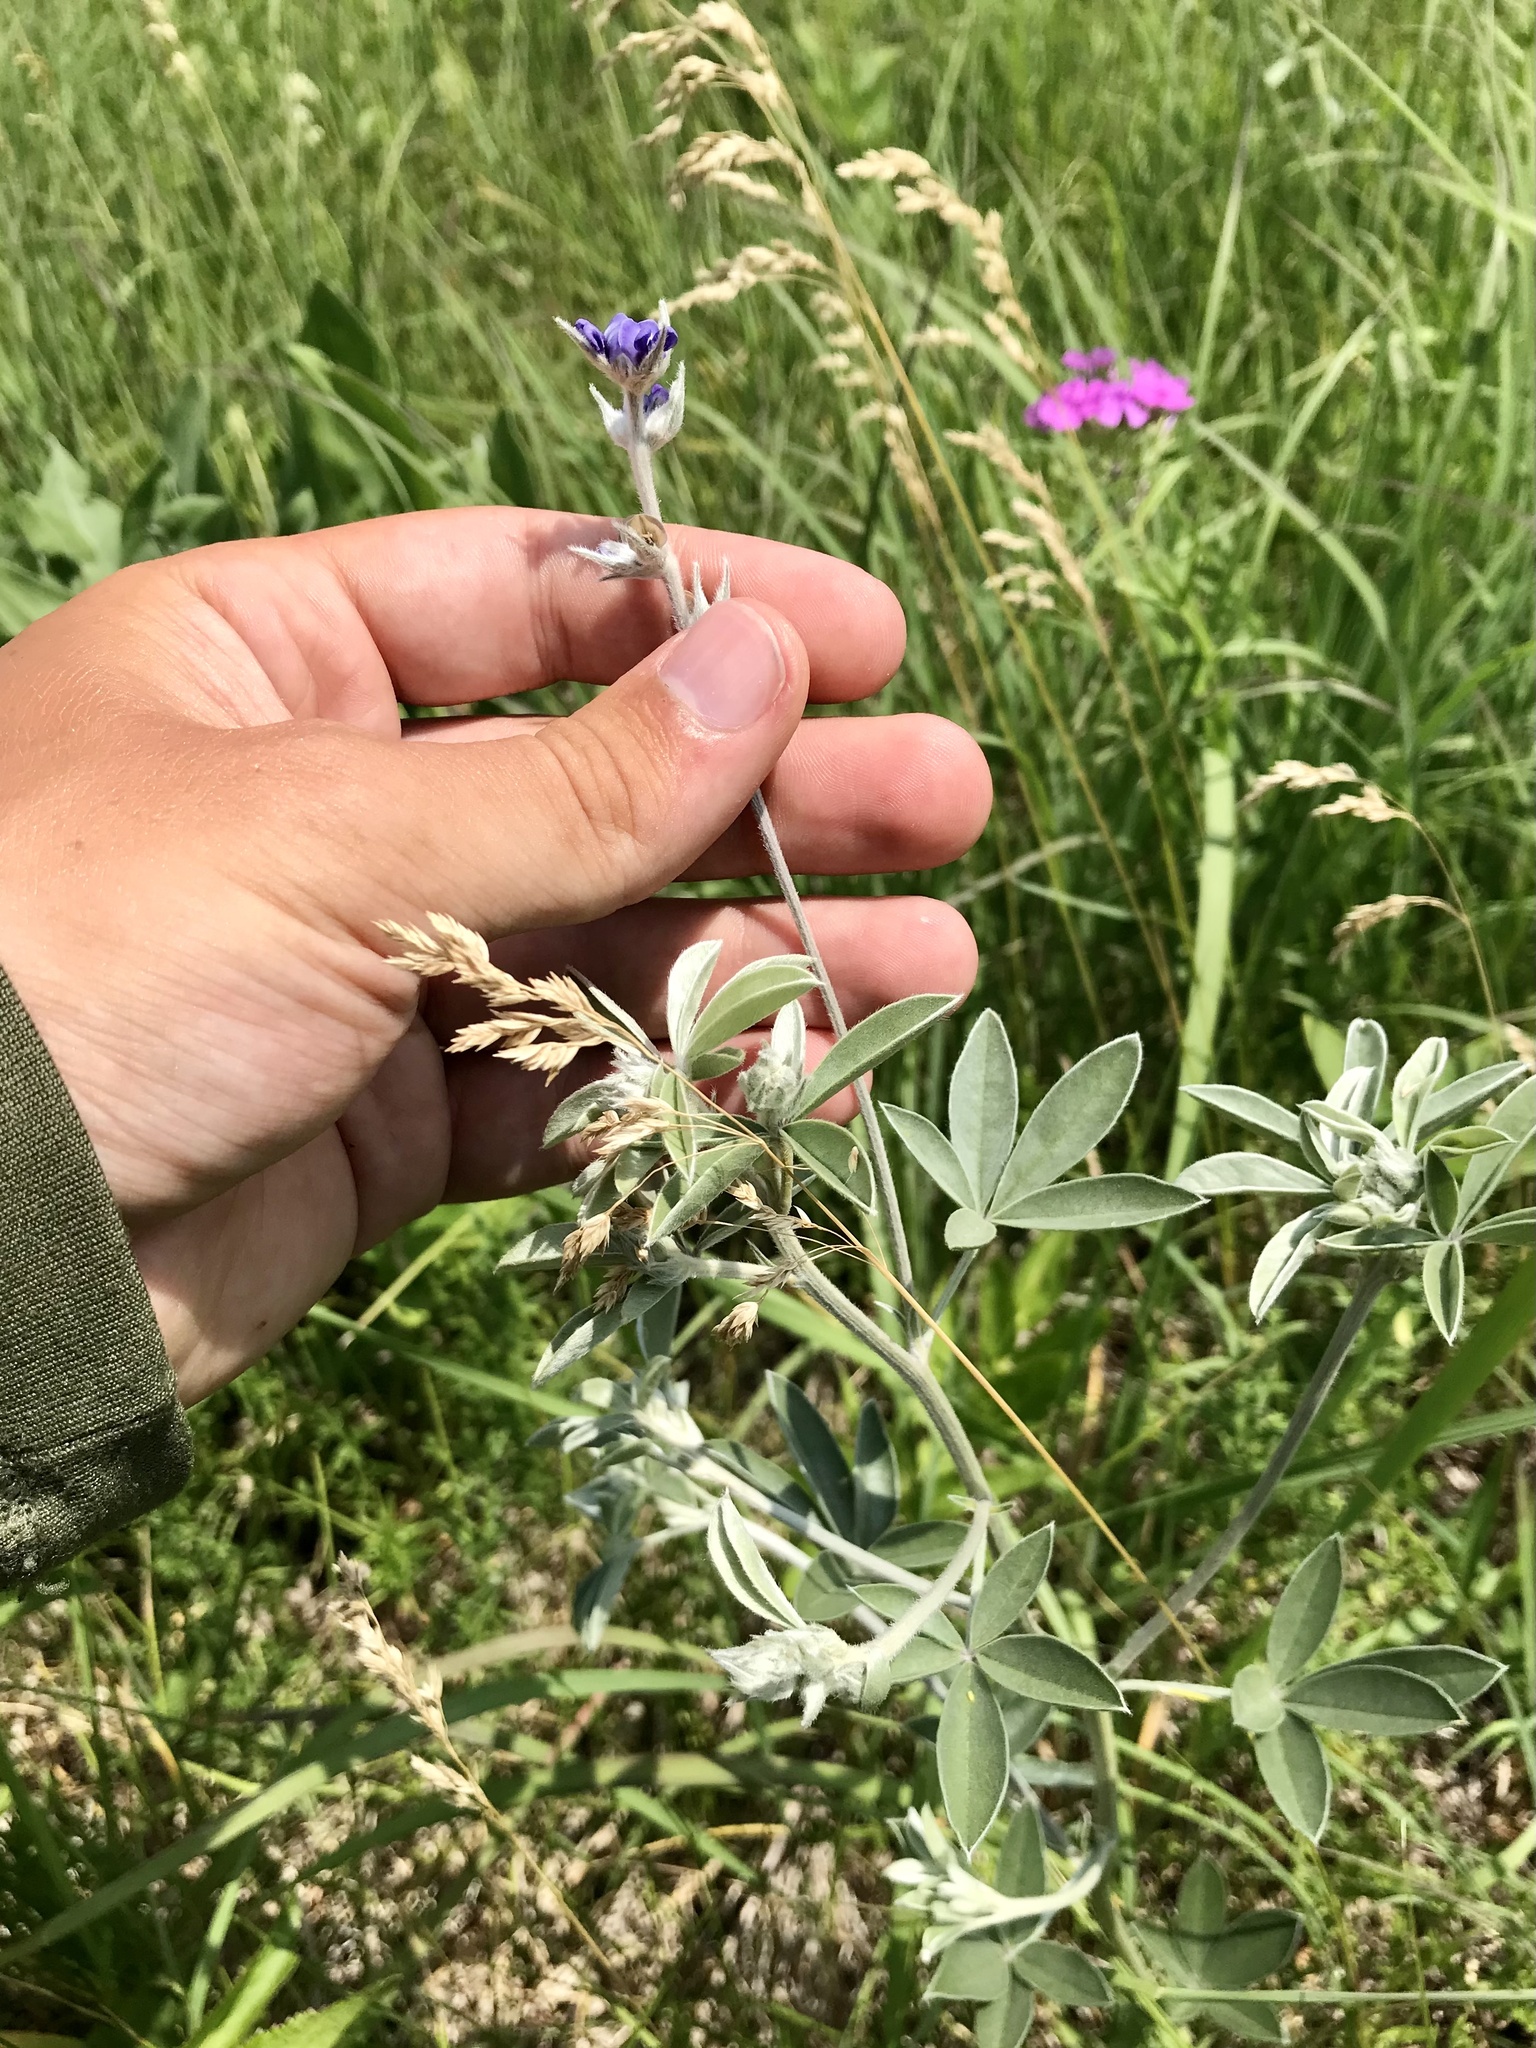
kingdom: Plantae
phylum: Tracheophyta
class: Magnoliopsida
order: Fabales
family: Fabaceae
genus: Pediomelum
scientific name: Pediomelum argophyllum
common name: Silver-leaved indian breadroot
